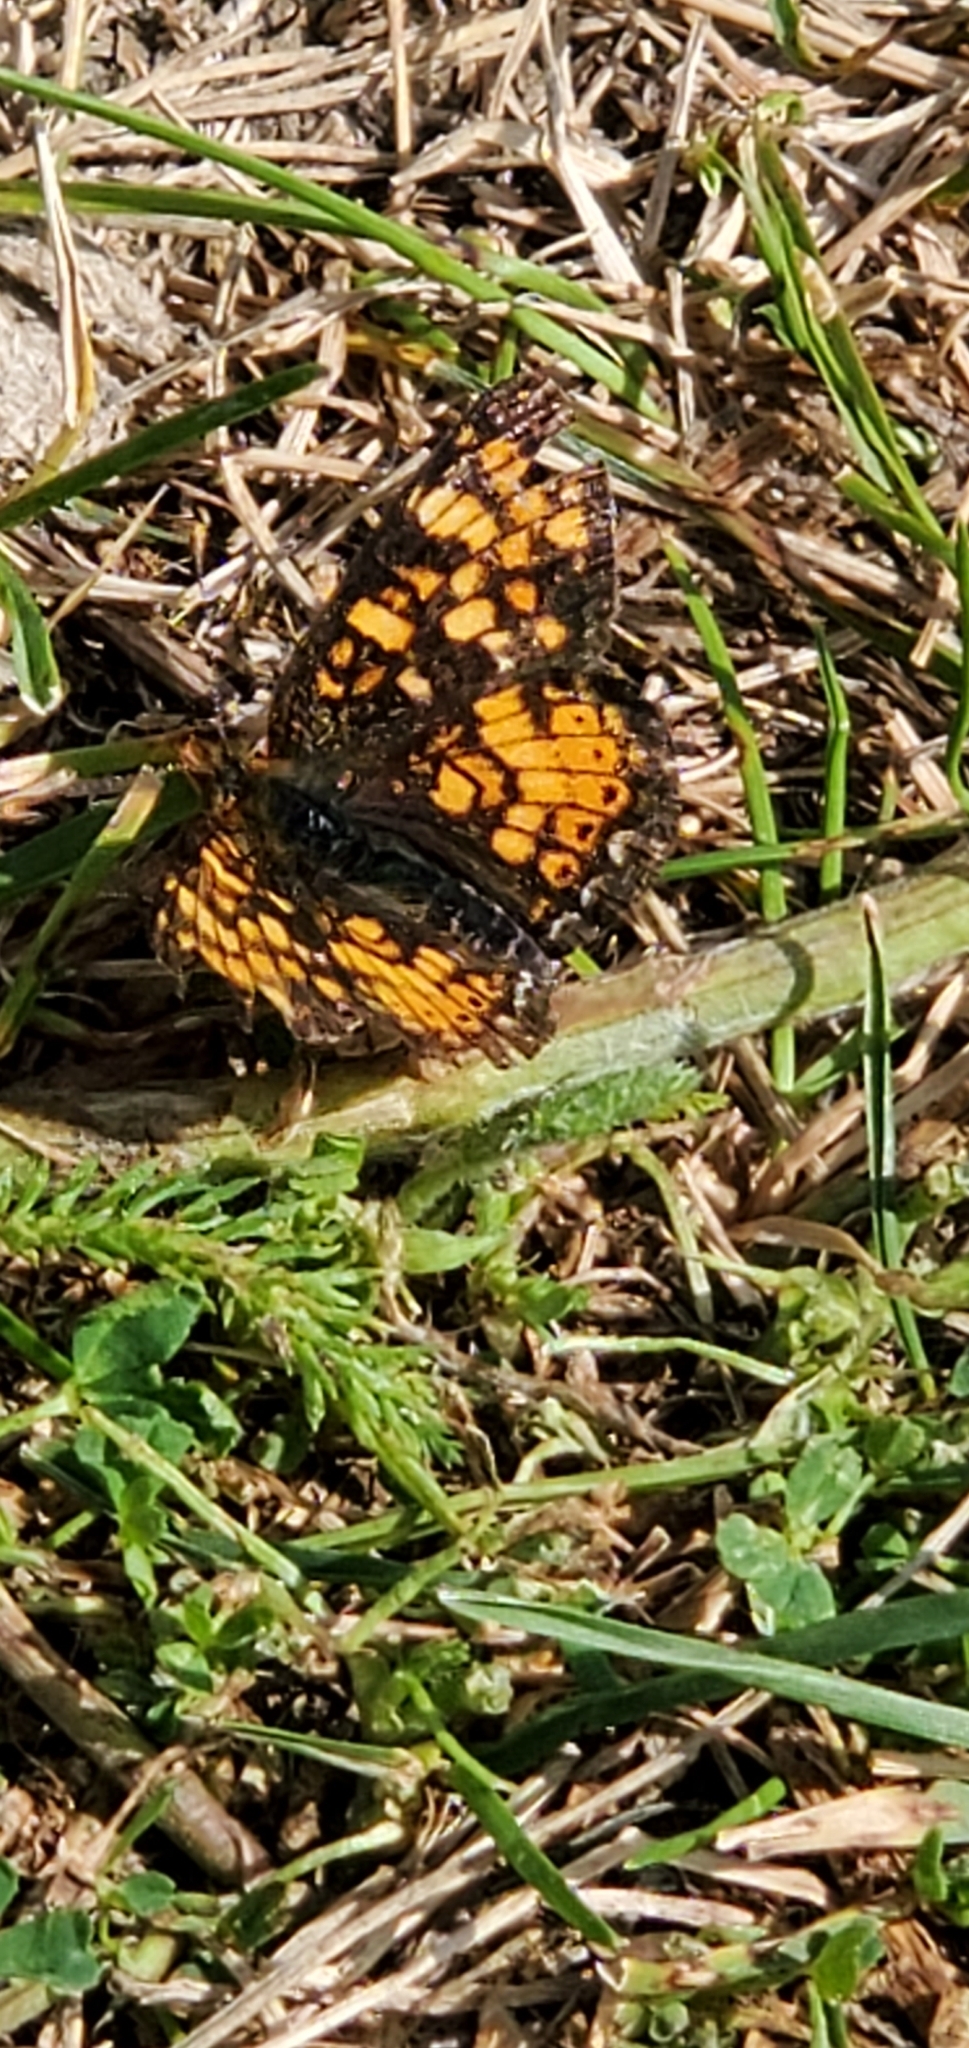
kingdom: Animalia
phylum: Arthropoda
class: Insecta
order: Lepidoptera
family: Nymphalidae
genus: Phyciodes
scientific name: Phyciodes tharos
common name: Pearl crescent
